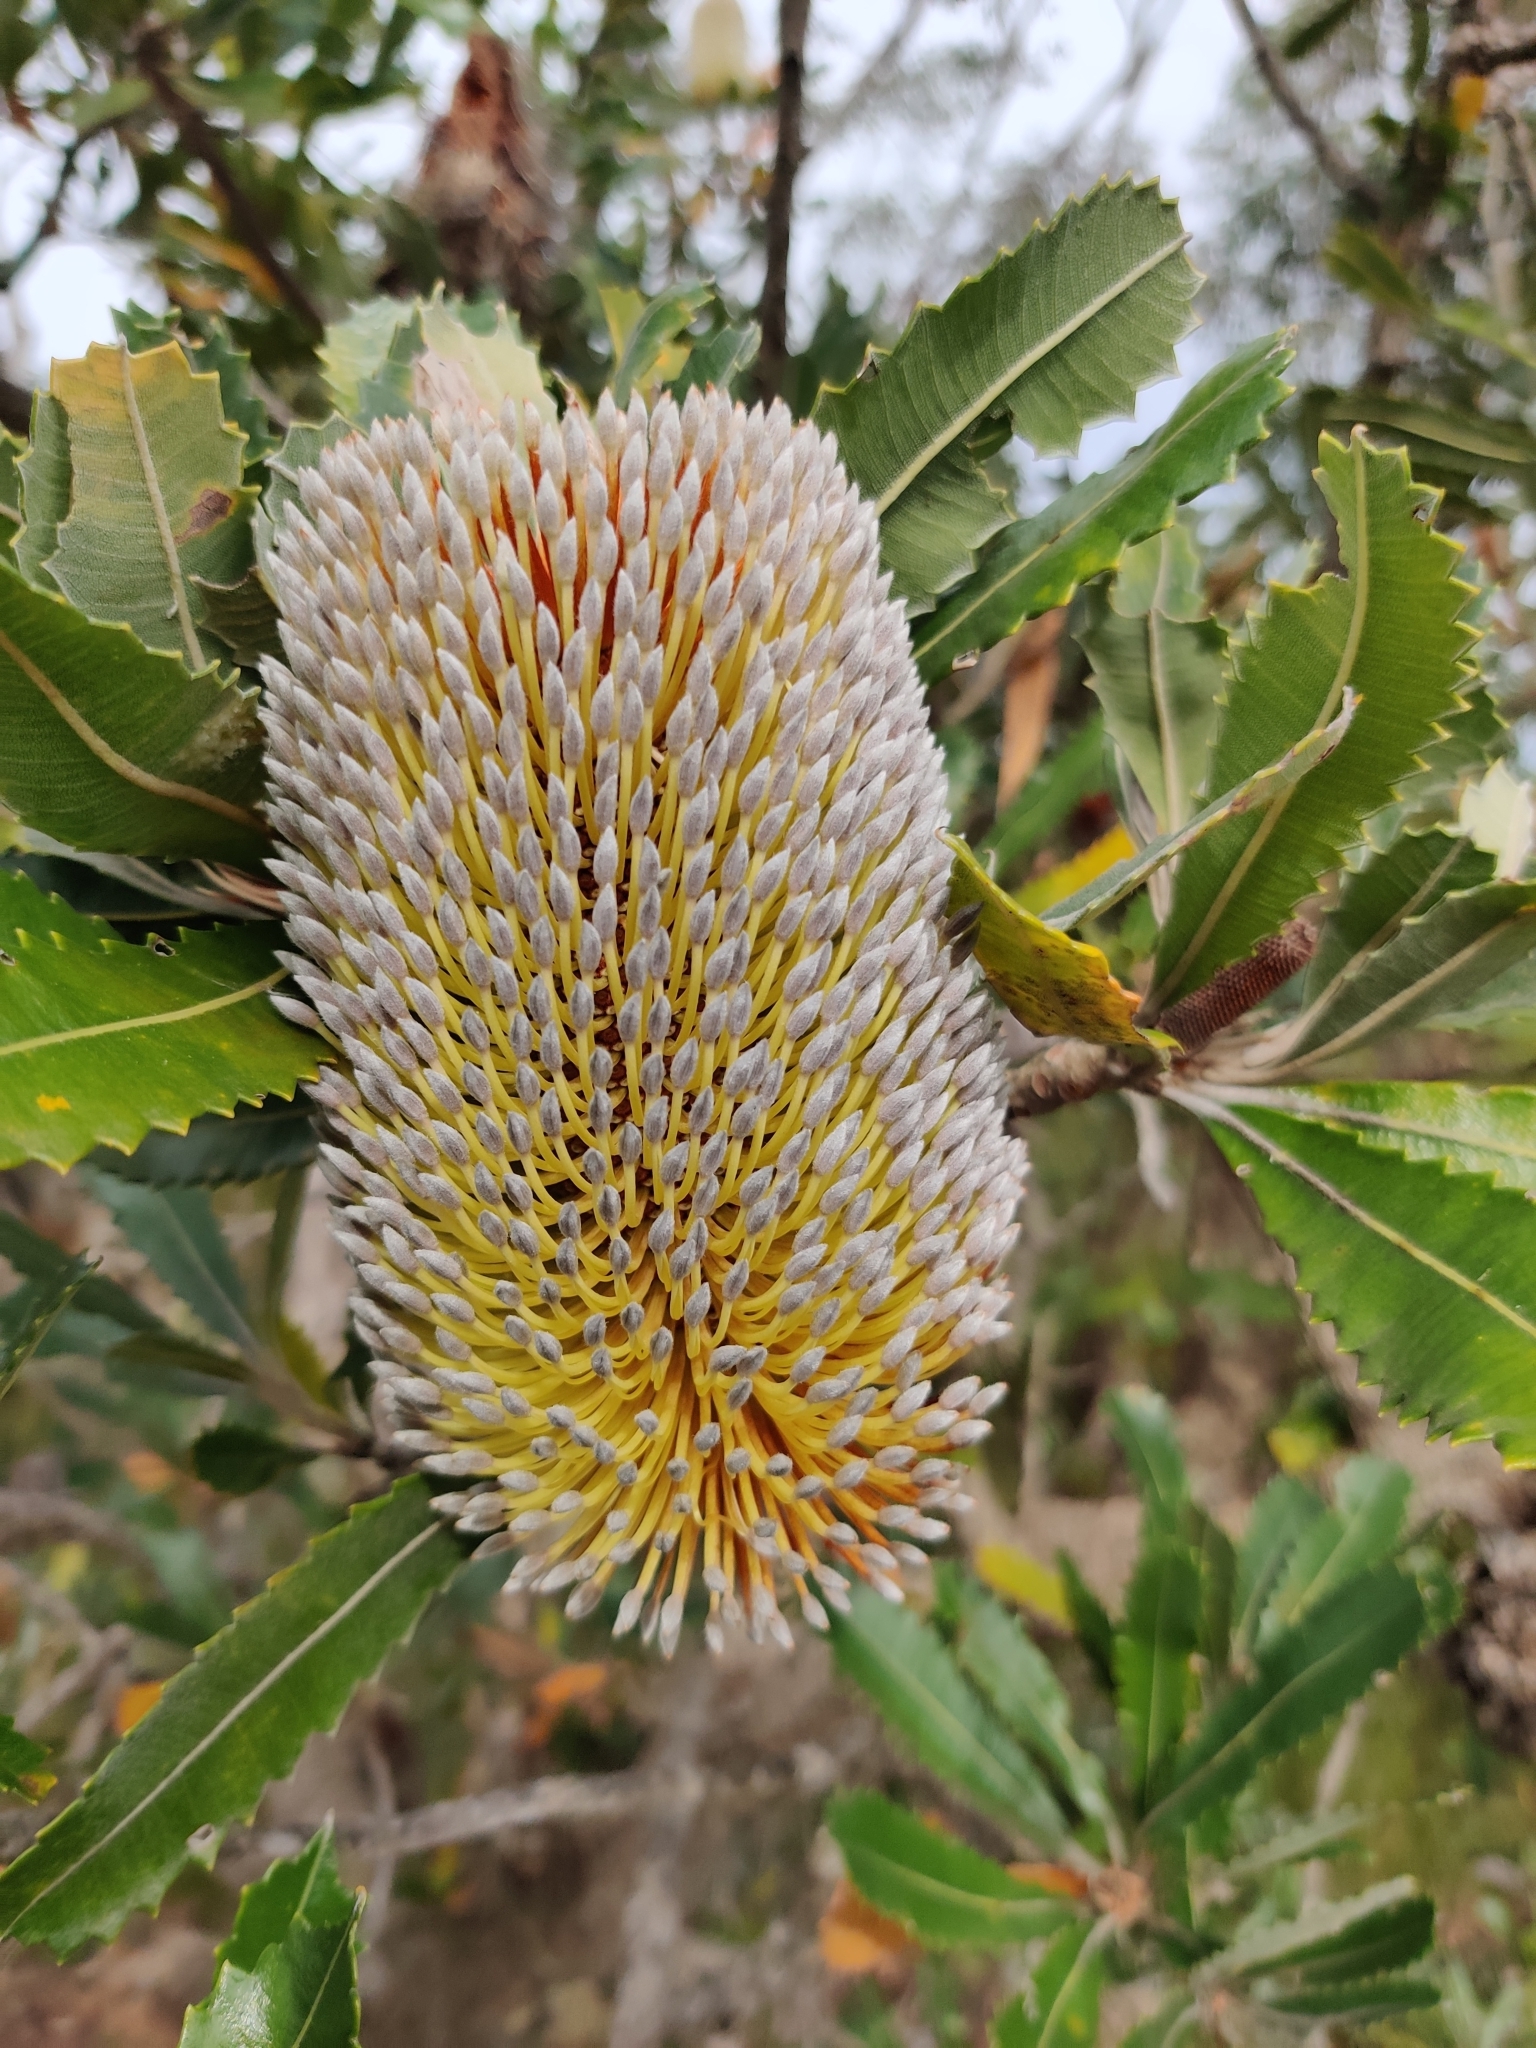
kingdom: Plantae
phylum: Tracheophyta
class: Magnoliopsida
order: Proteales
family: Proteaceae
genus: Banksia
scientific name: Banksia serrata
